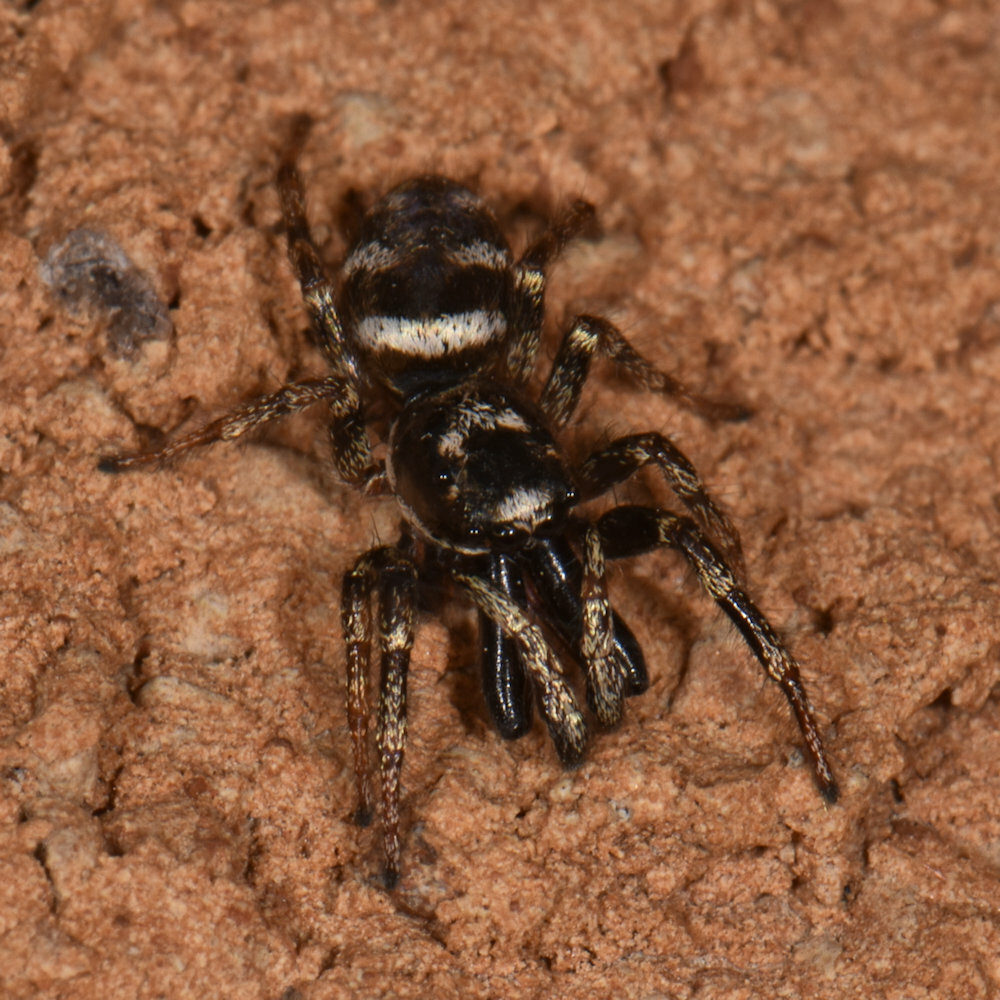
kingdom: Animalia
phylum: Arthropoda
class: Arachnida
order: Araneae
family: Salticidae
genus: Salticus
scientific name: Salticus scenicus
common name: Zebra jumper
